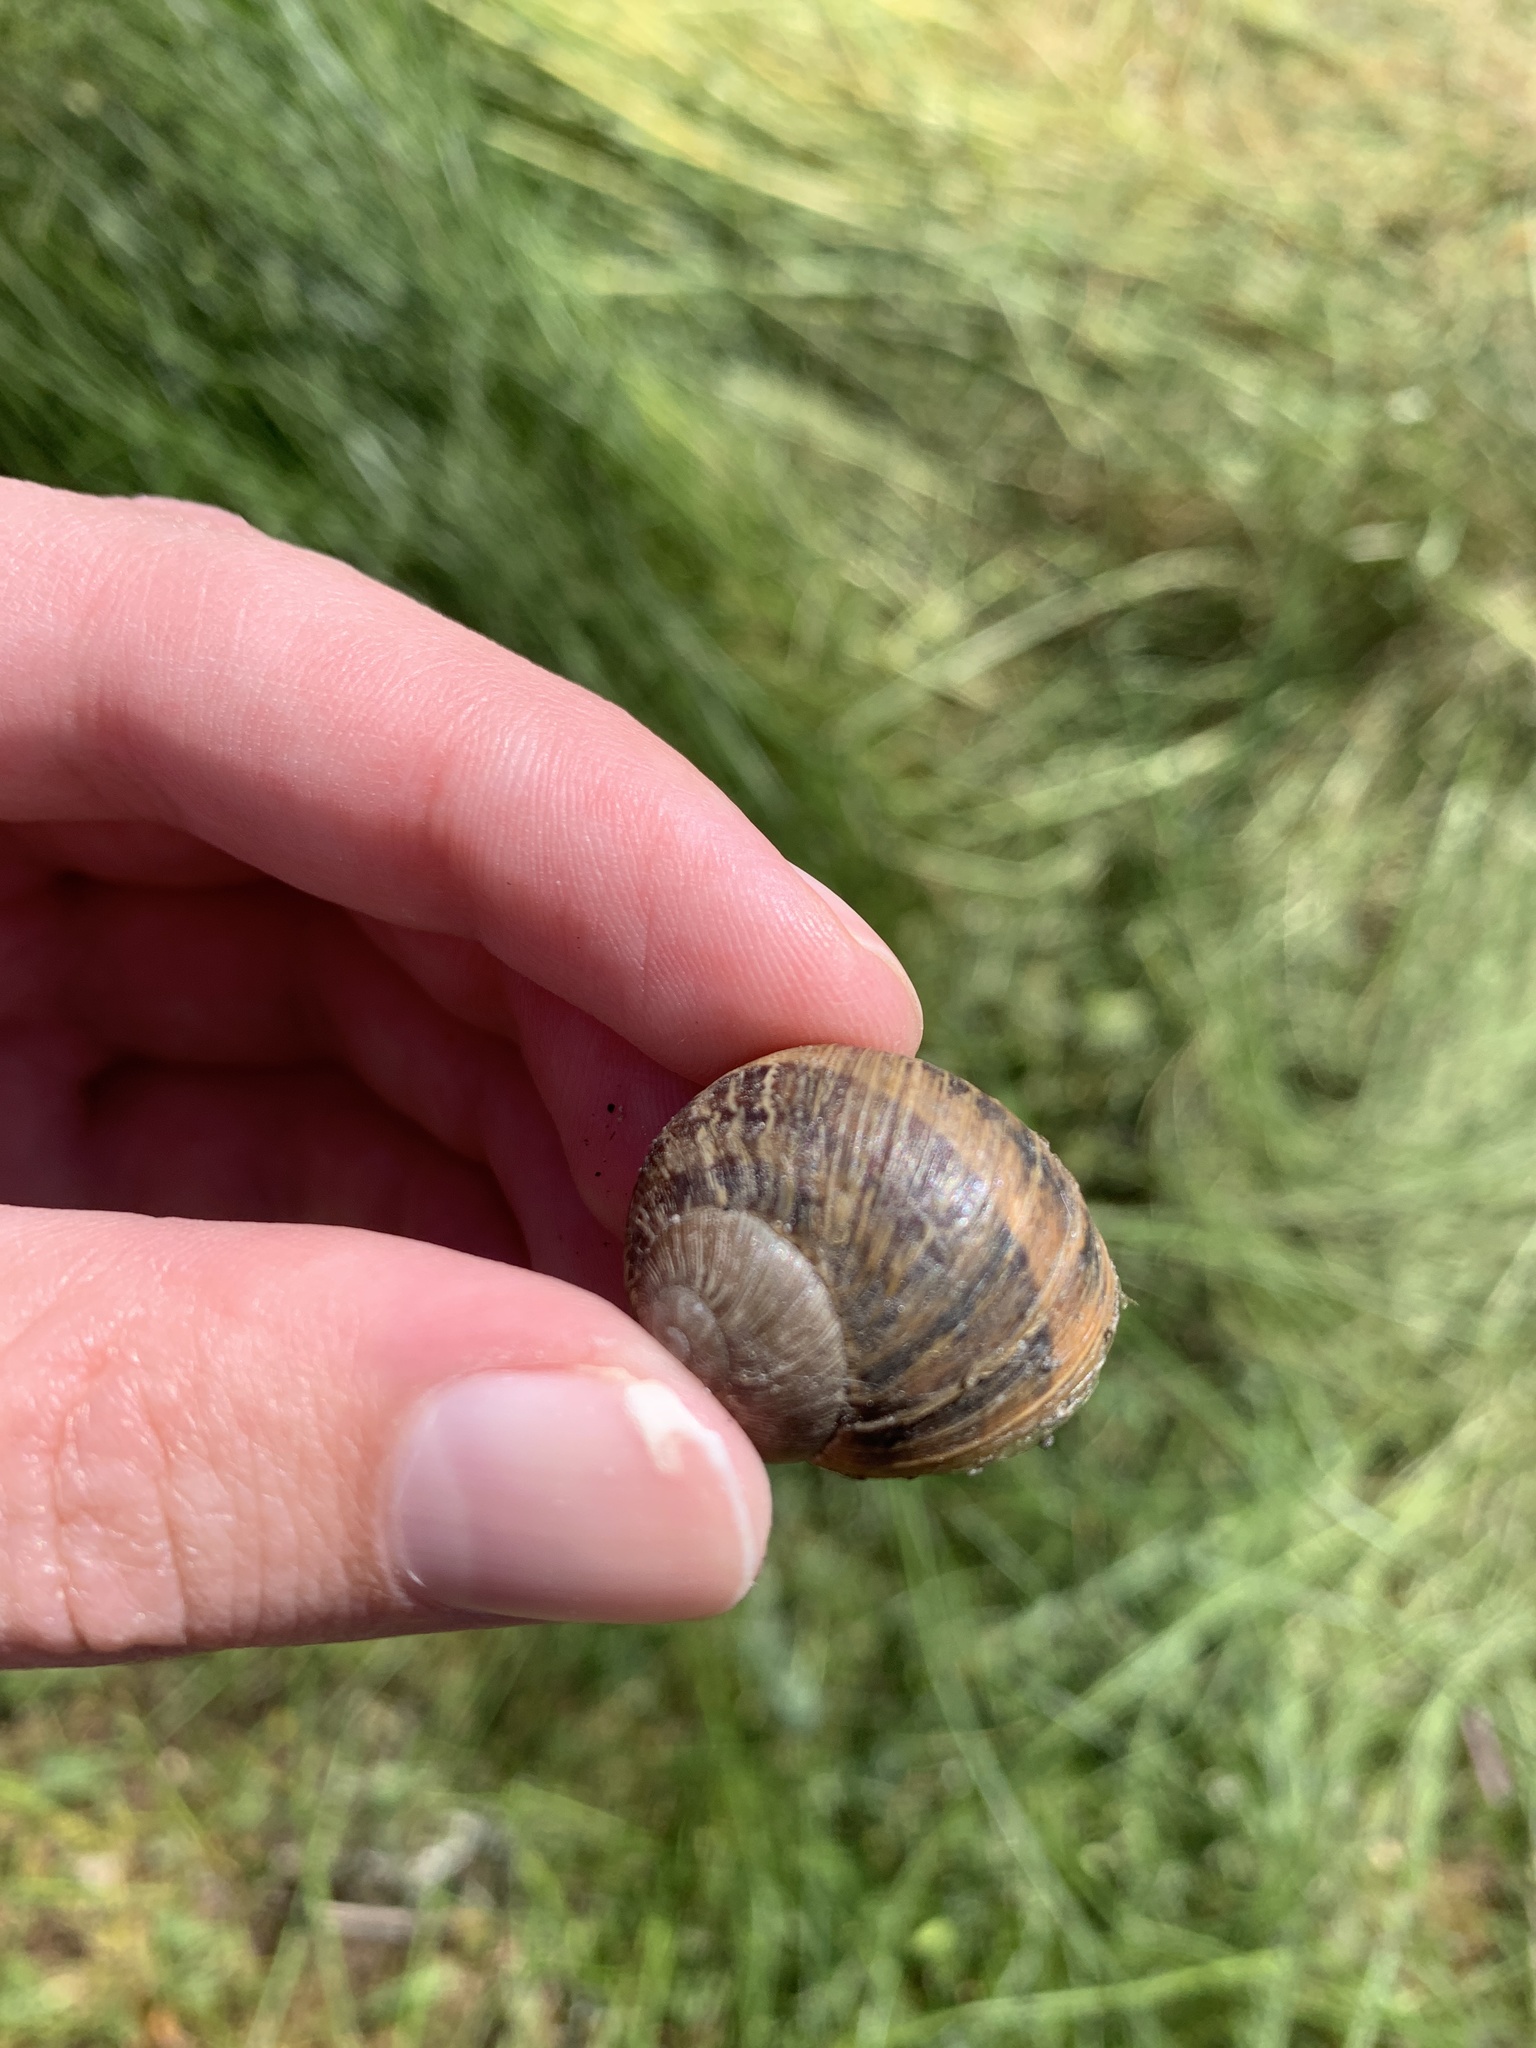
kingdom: Animalia
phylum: Mollusca
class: Gastropoda
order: Stylommatophora
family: Helicidae
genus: Cornu
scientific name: Cornu aspersum
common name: Brown garden snail
